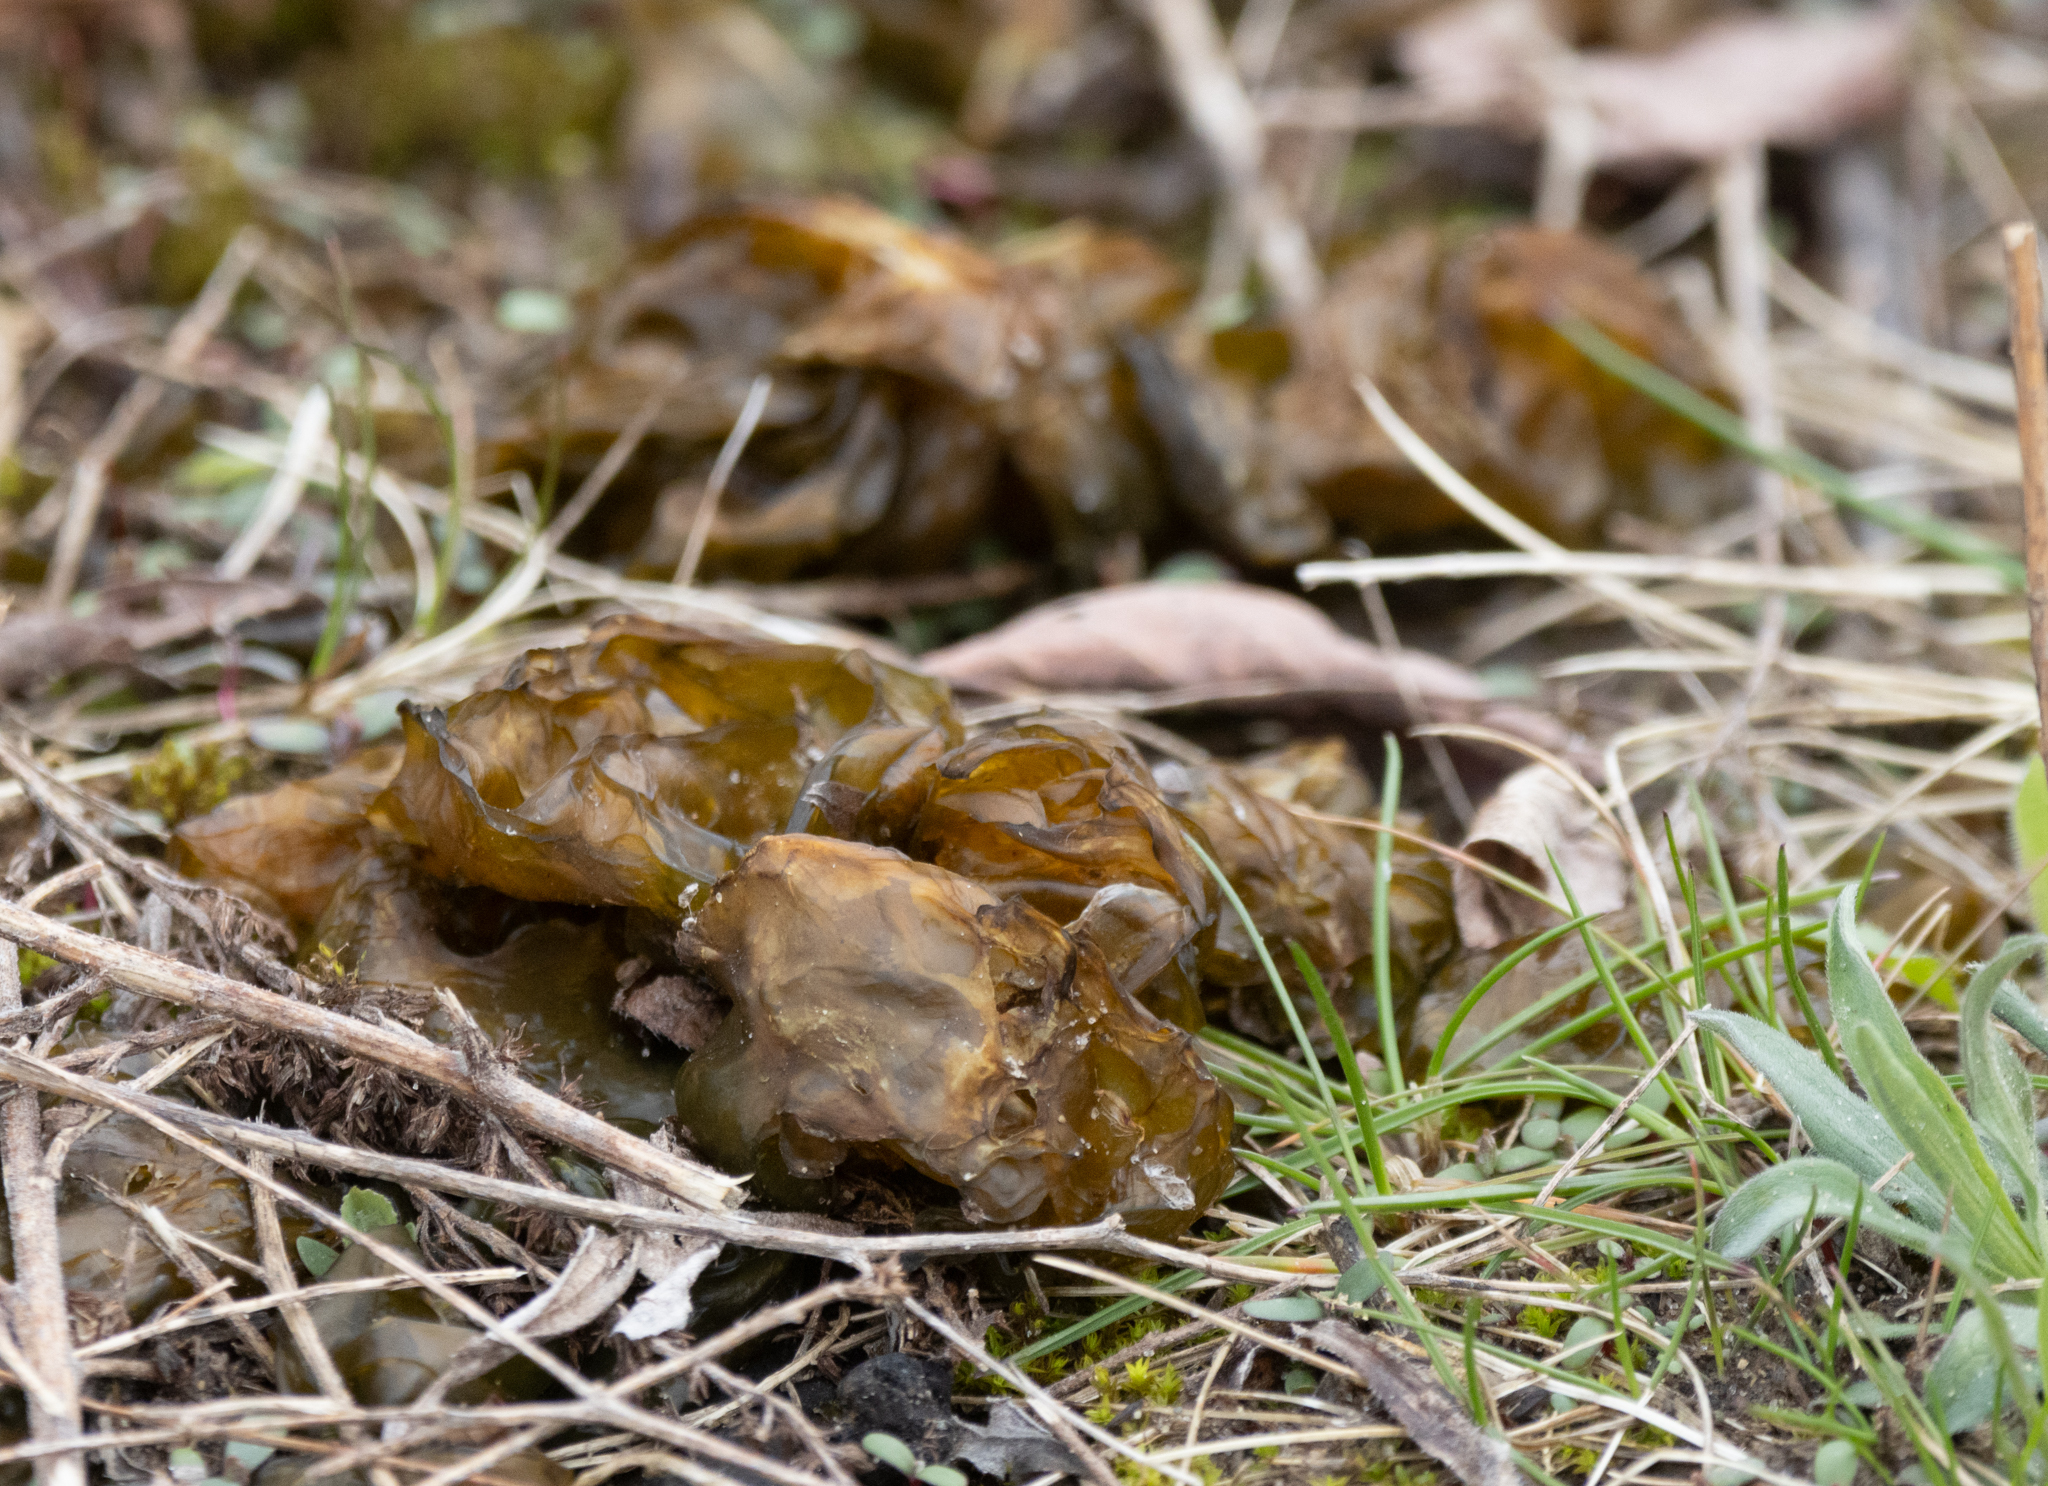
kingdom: Bacteria
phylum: Cyanobacteria
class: Cyanobacteriia
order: Cyanobacteriales
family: Nostocaceae
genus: Nostoc
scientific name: Nostoc commune
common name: Star jelly
